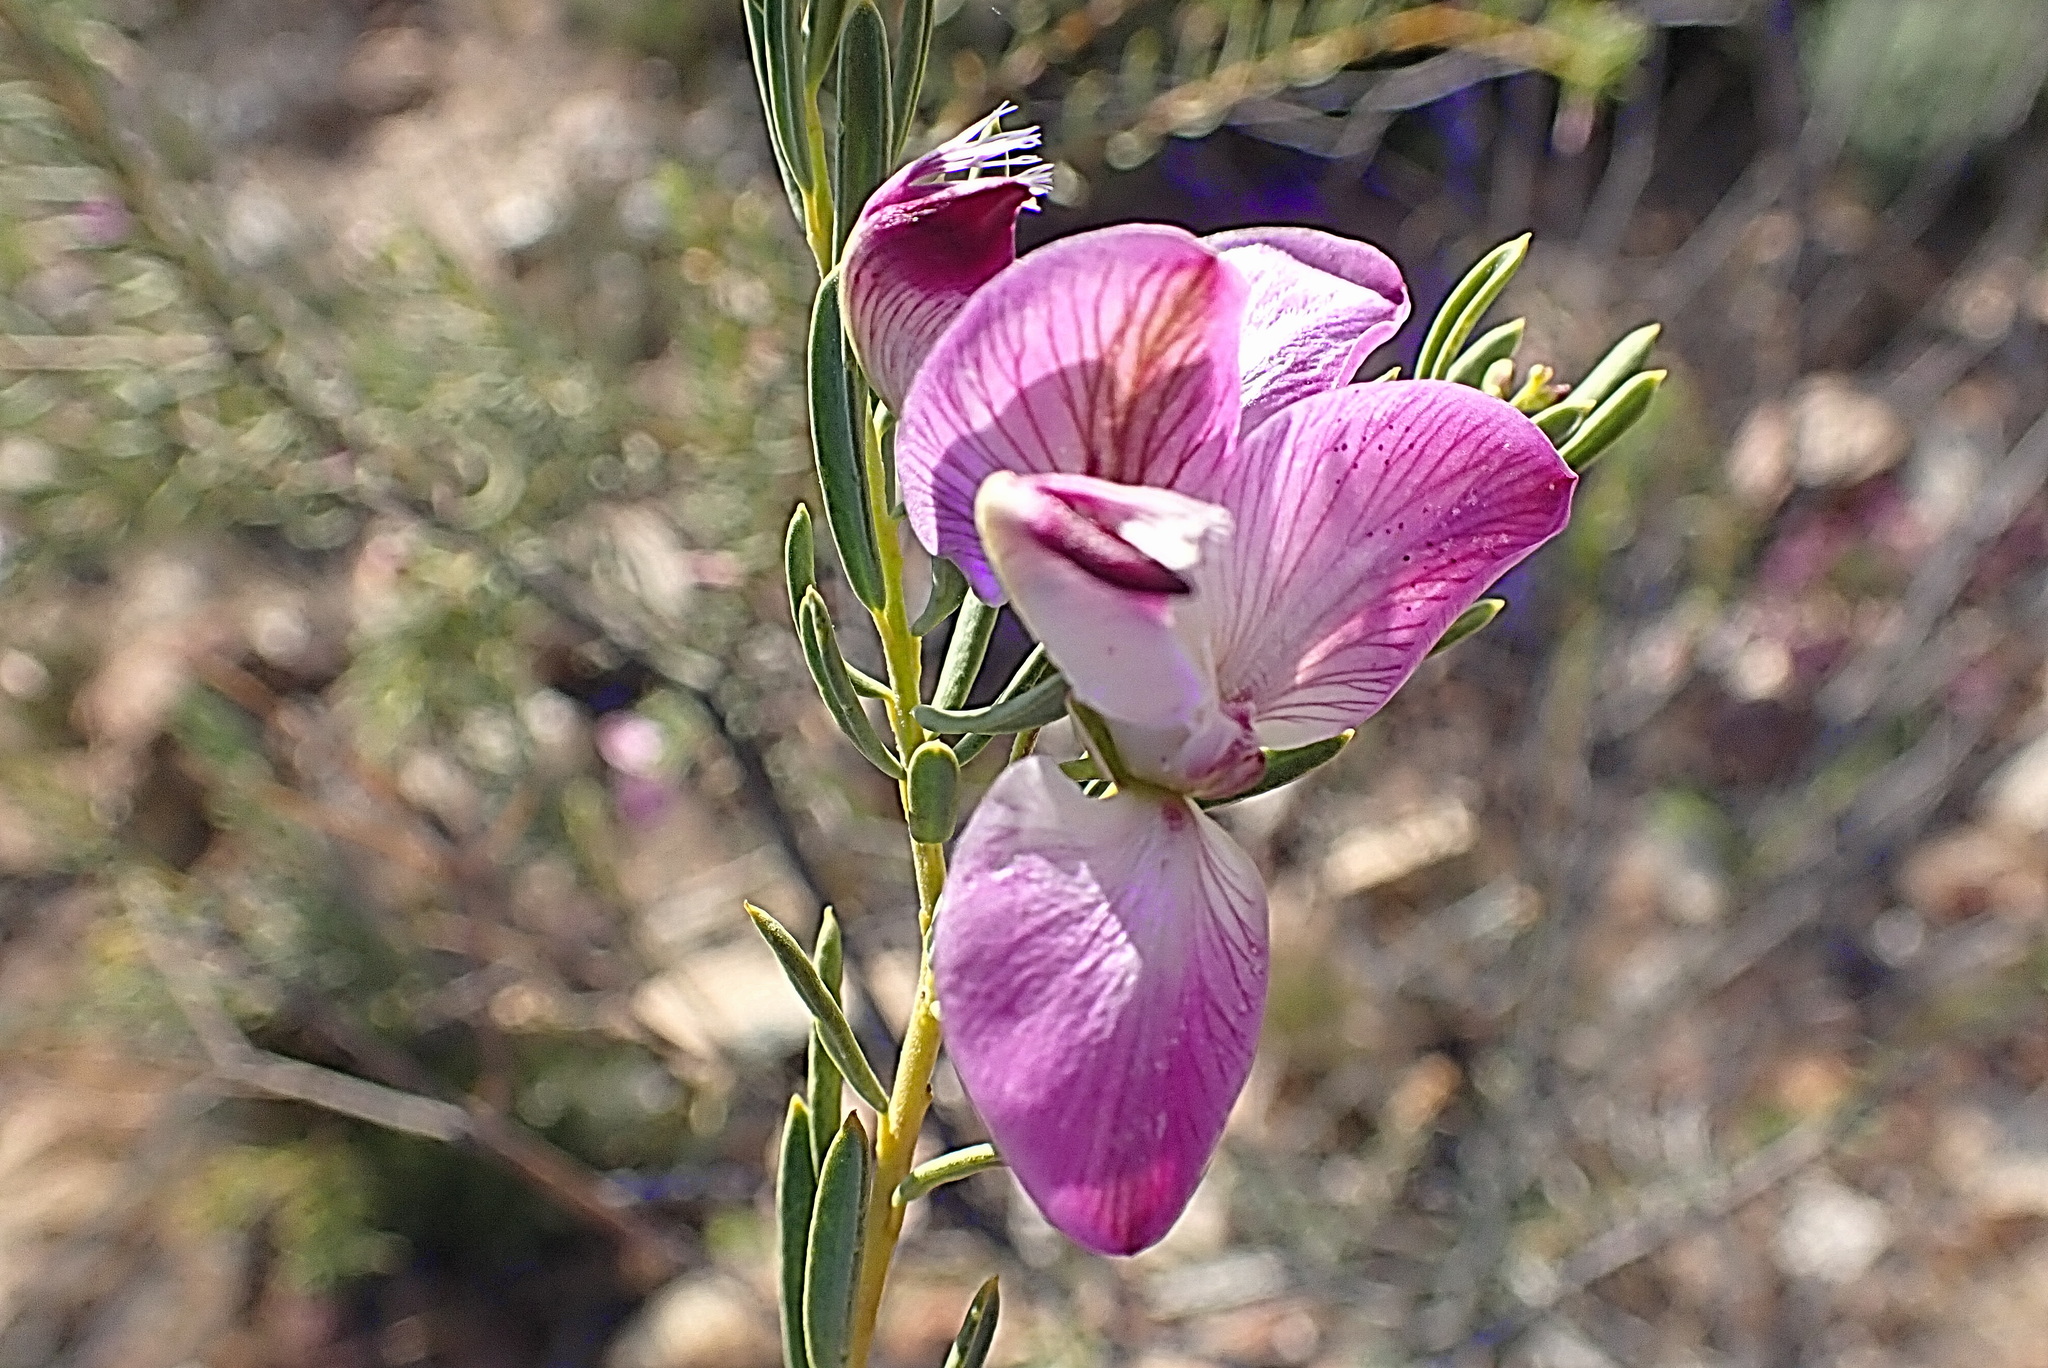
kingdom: Plantae
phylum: Tracheophyta
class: Magnoliopsida
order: Fabales
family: Polygalaceae
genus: Polygala
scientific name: Polygala myrtifolia
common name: Myrtle-leaf milkwort
